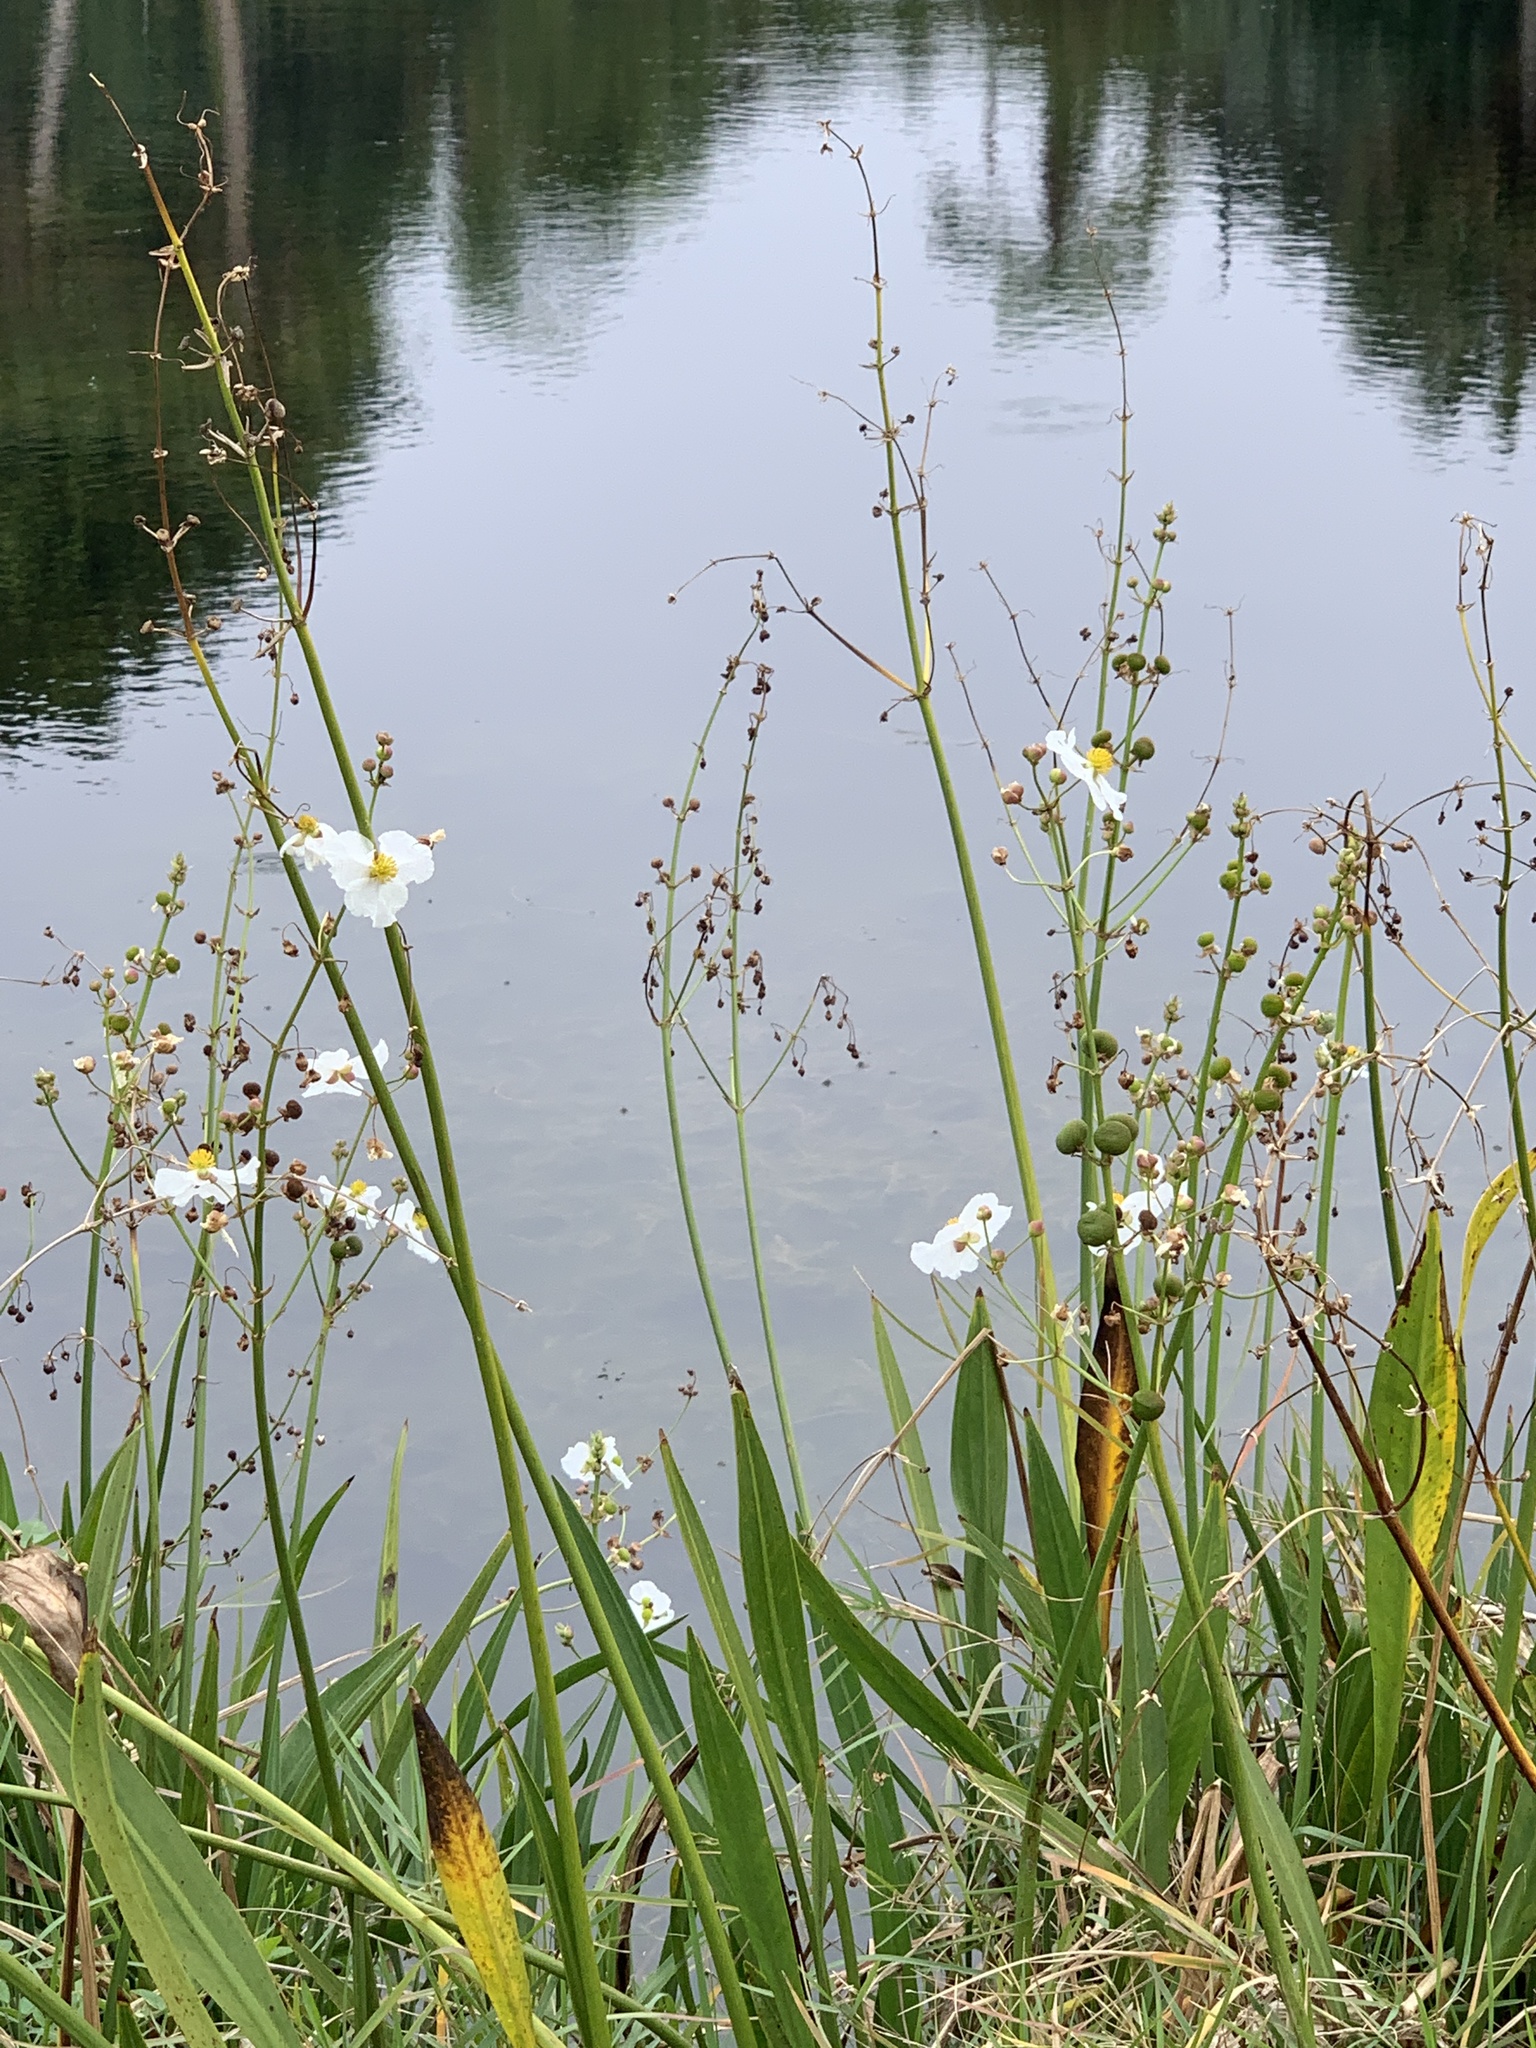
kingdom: Plantae
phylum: Tracheophyta
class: Liliopsida
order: Alismatales
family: Alismataceae
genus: Sagittaria
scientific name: Sagittaria lancifolia
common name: Lance-leaf arrowhead
